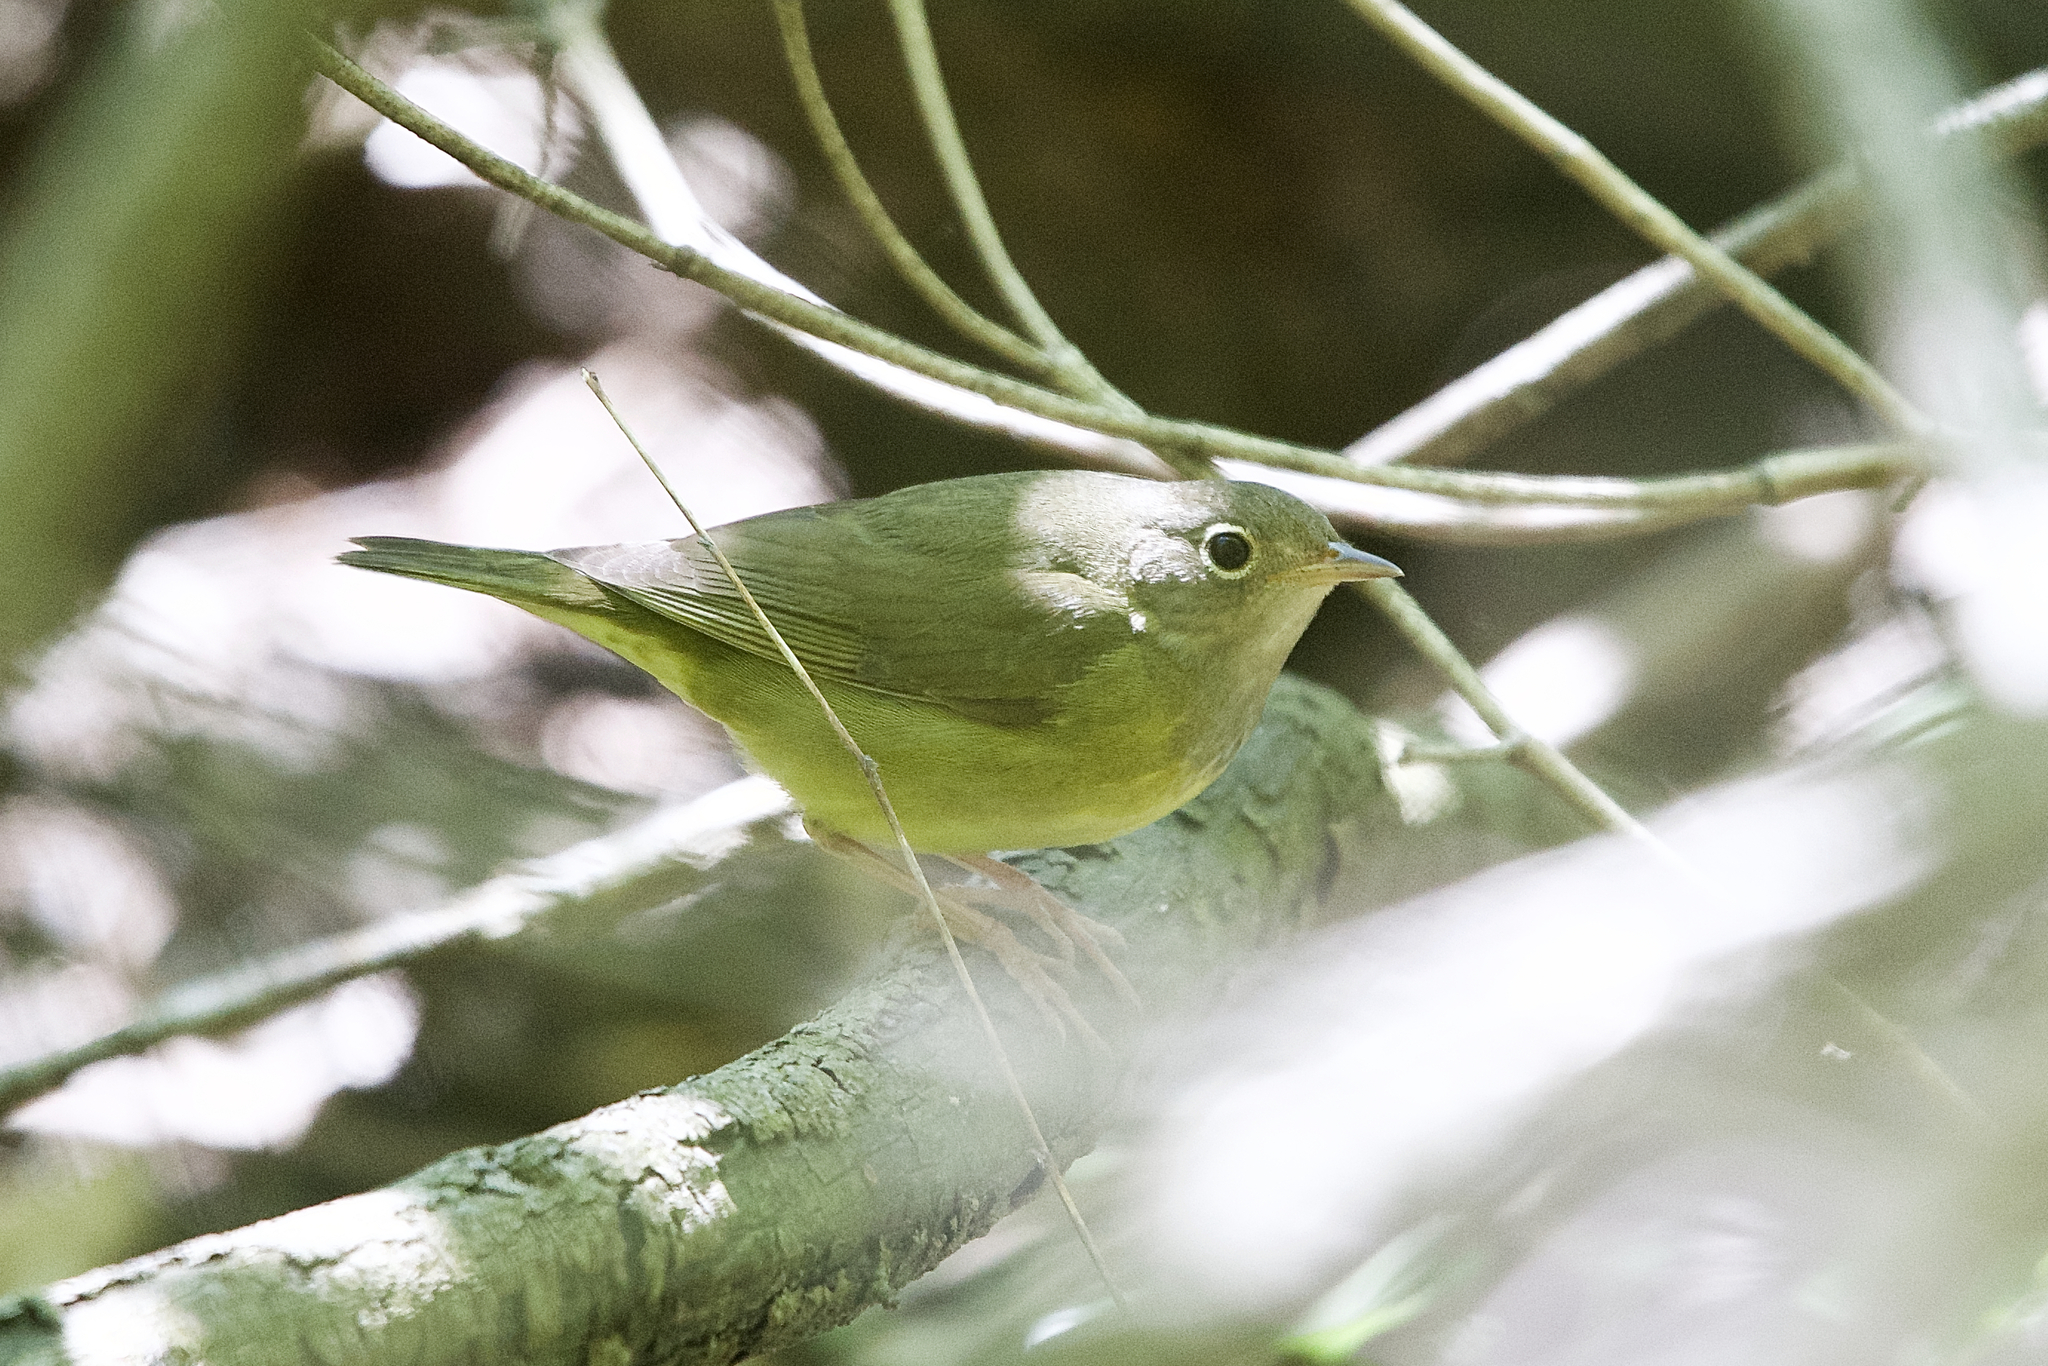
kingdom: Animalia
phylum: Chordata
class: Aves
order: Passeriformes
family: Parulidae
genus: Oporornis
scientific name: Oporornis agilis
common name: Connecticut warbler
